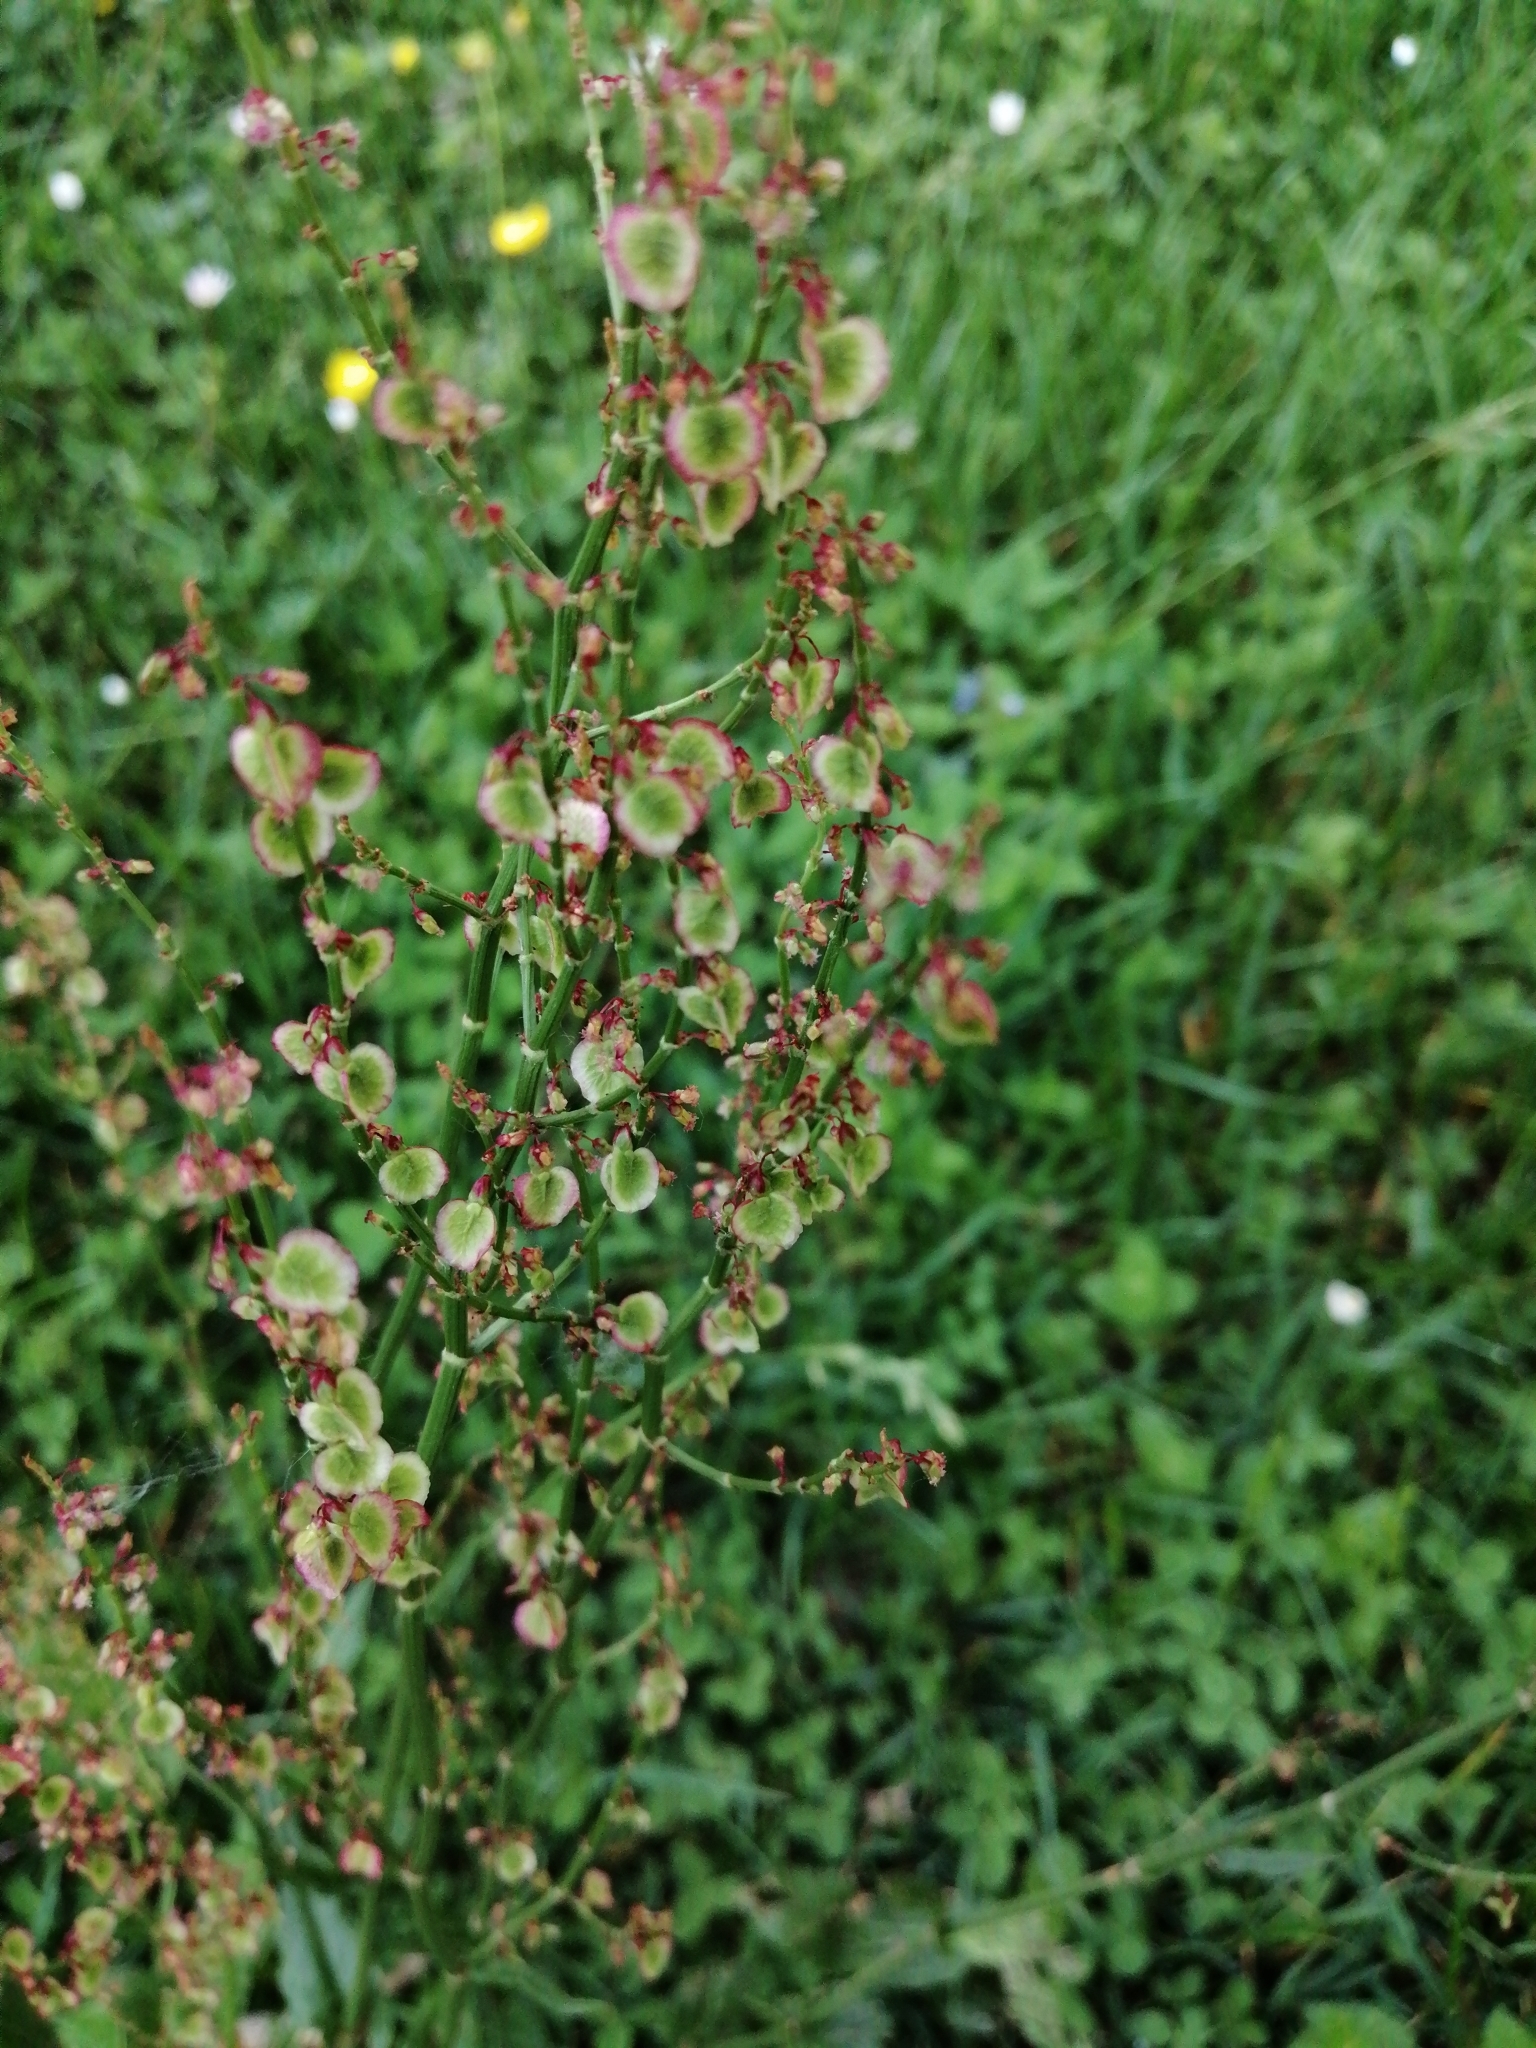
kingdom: Plantae
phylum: Tracheophyta
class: Magnoliopsida
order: Caryophyllales
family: Polygonaceae
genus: Rumex
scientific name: Rumex acetosella
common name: Common sheep sorrel
